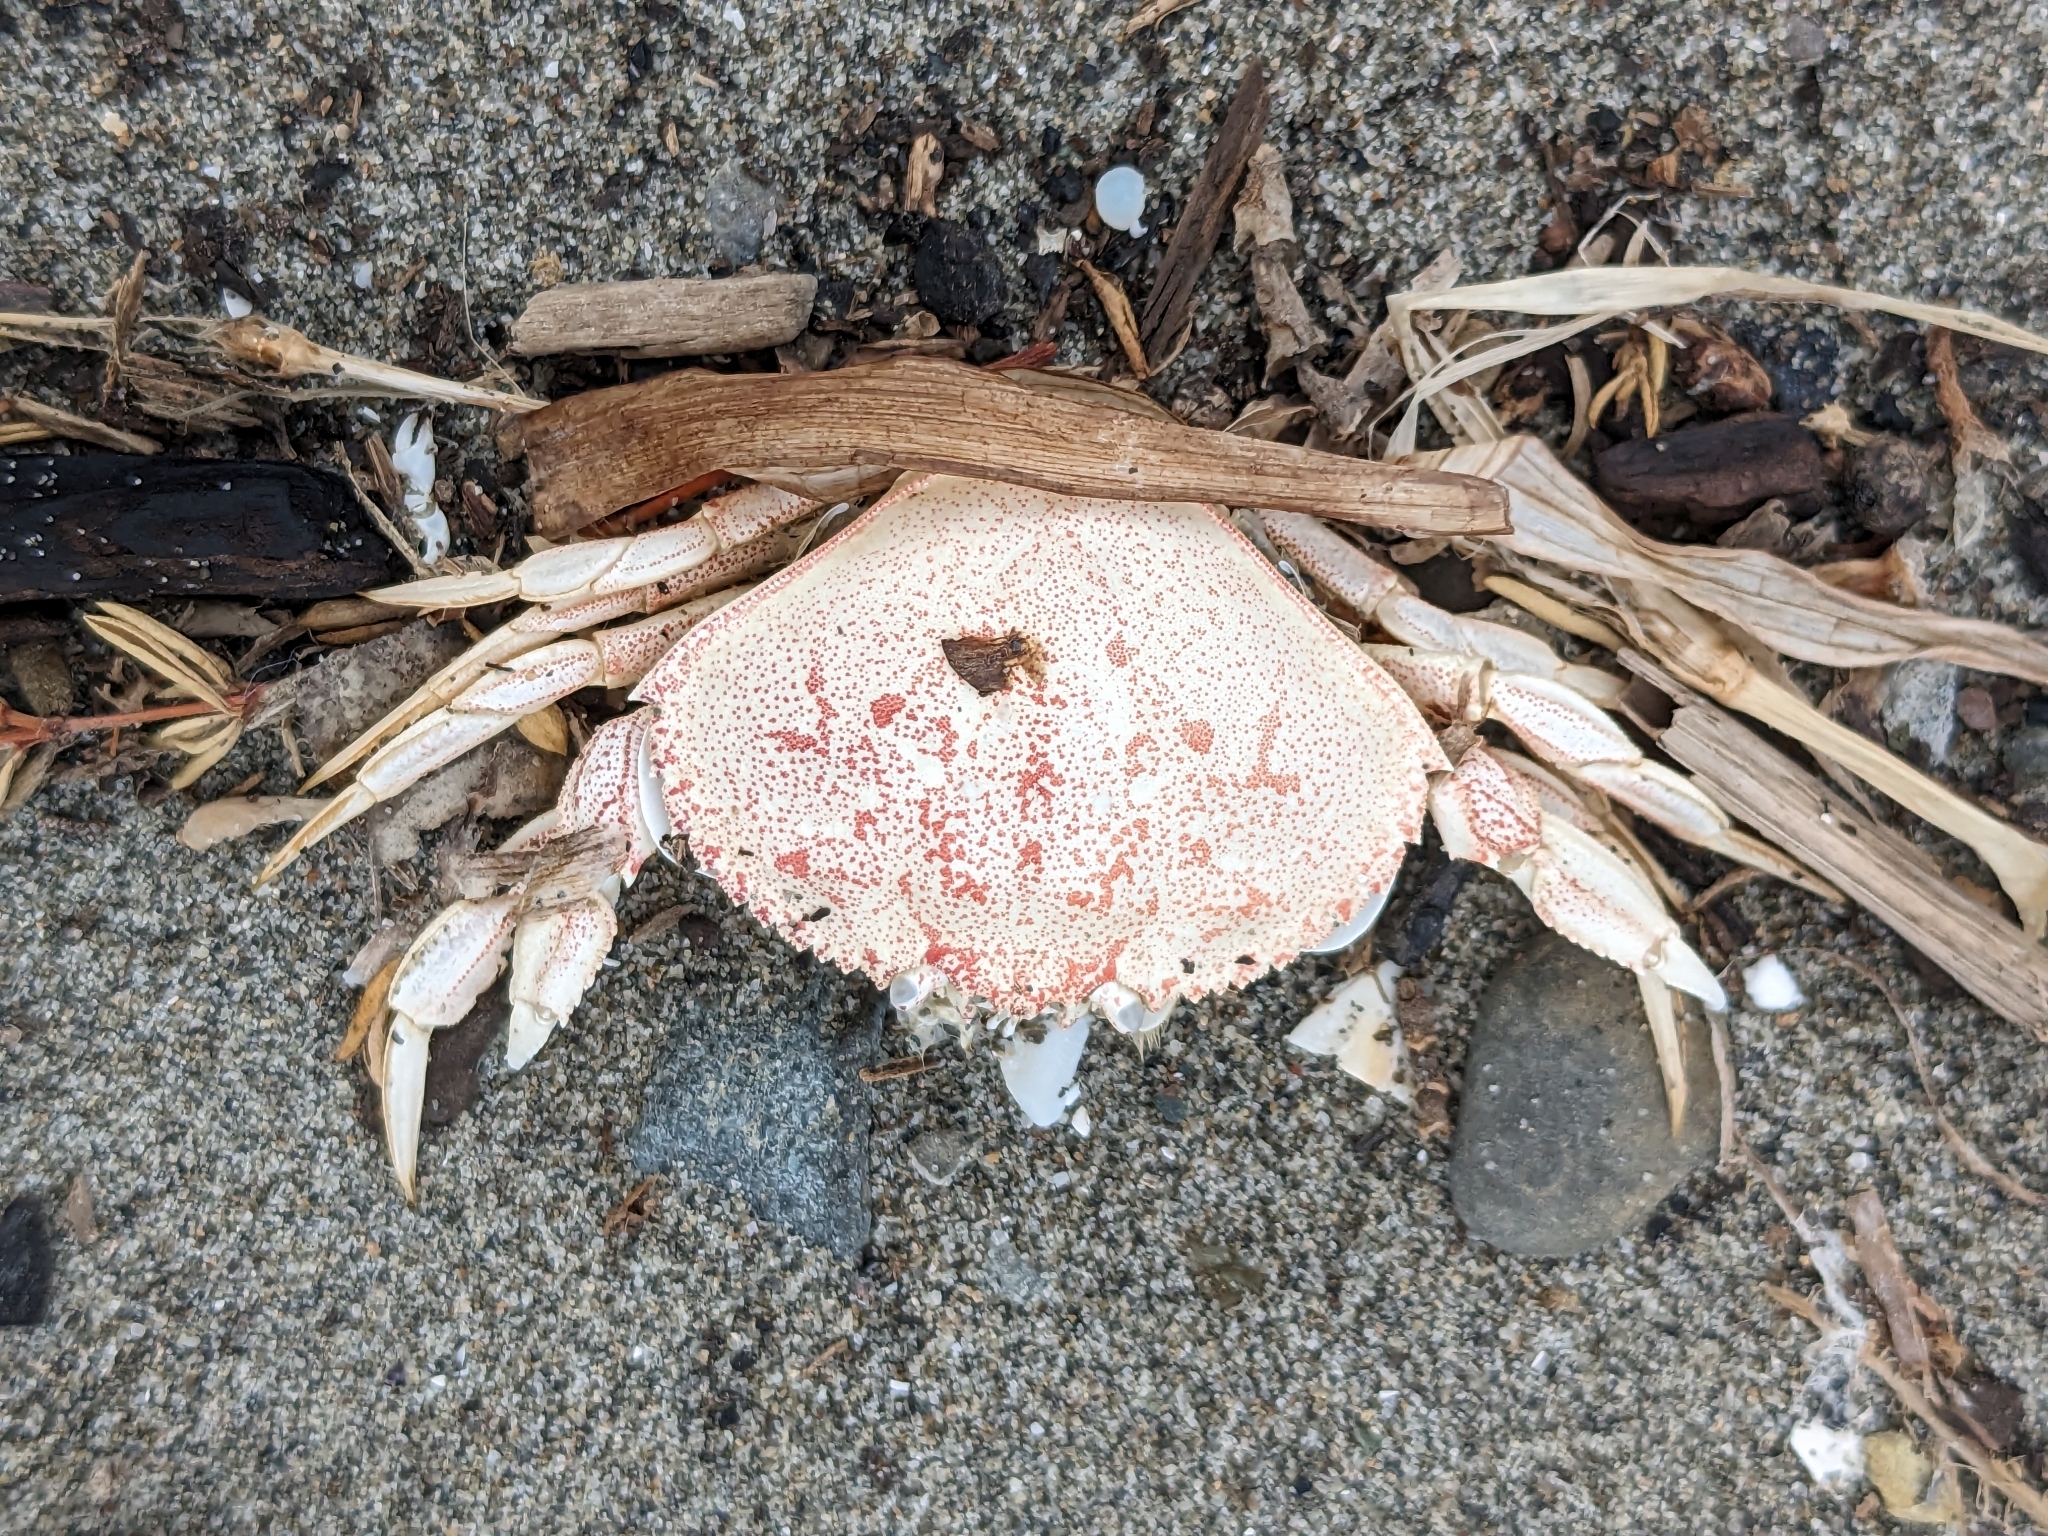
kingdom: Animalia
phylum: Arthropoda
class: Malacostraca
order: Decapoda
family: Cancridae
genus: Metacarcinus
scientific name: Metacarcinus magister
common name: Californian crab
